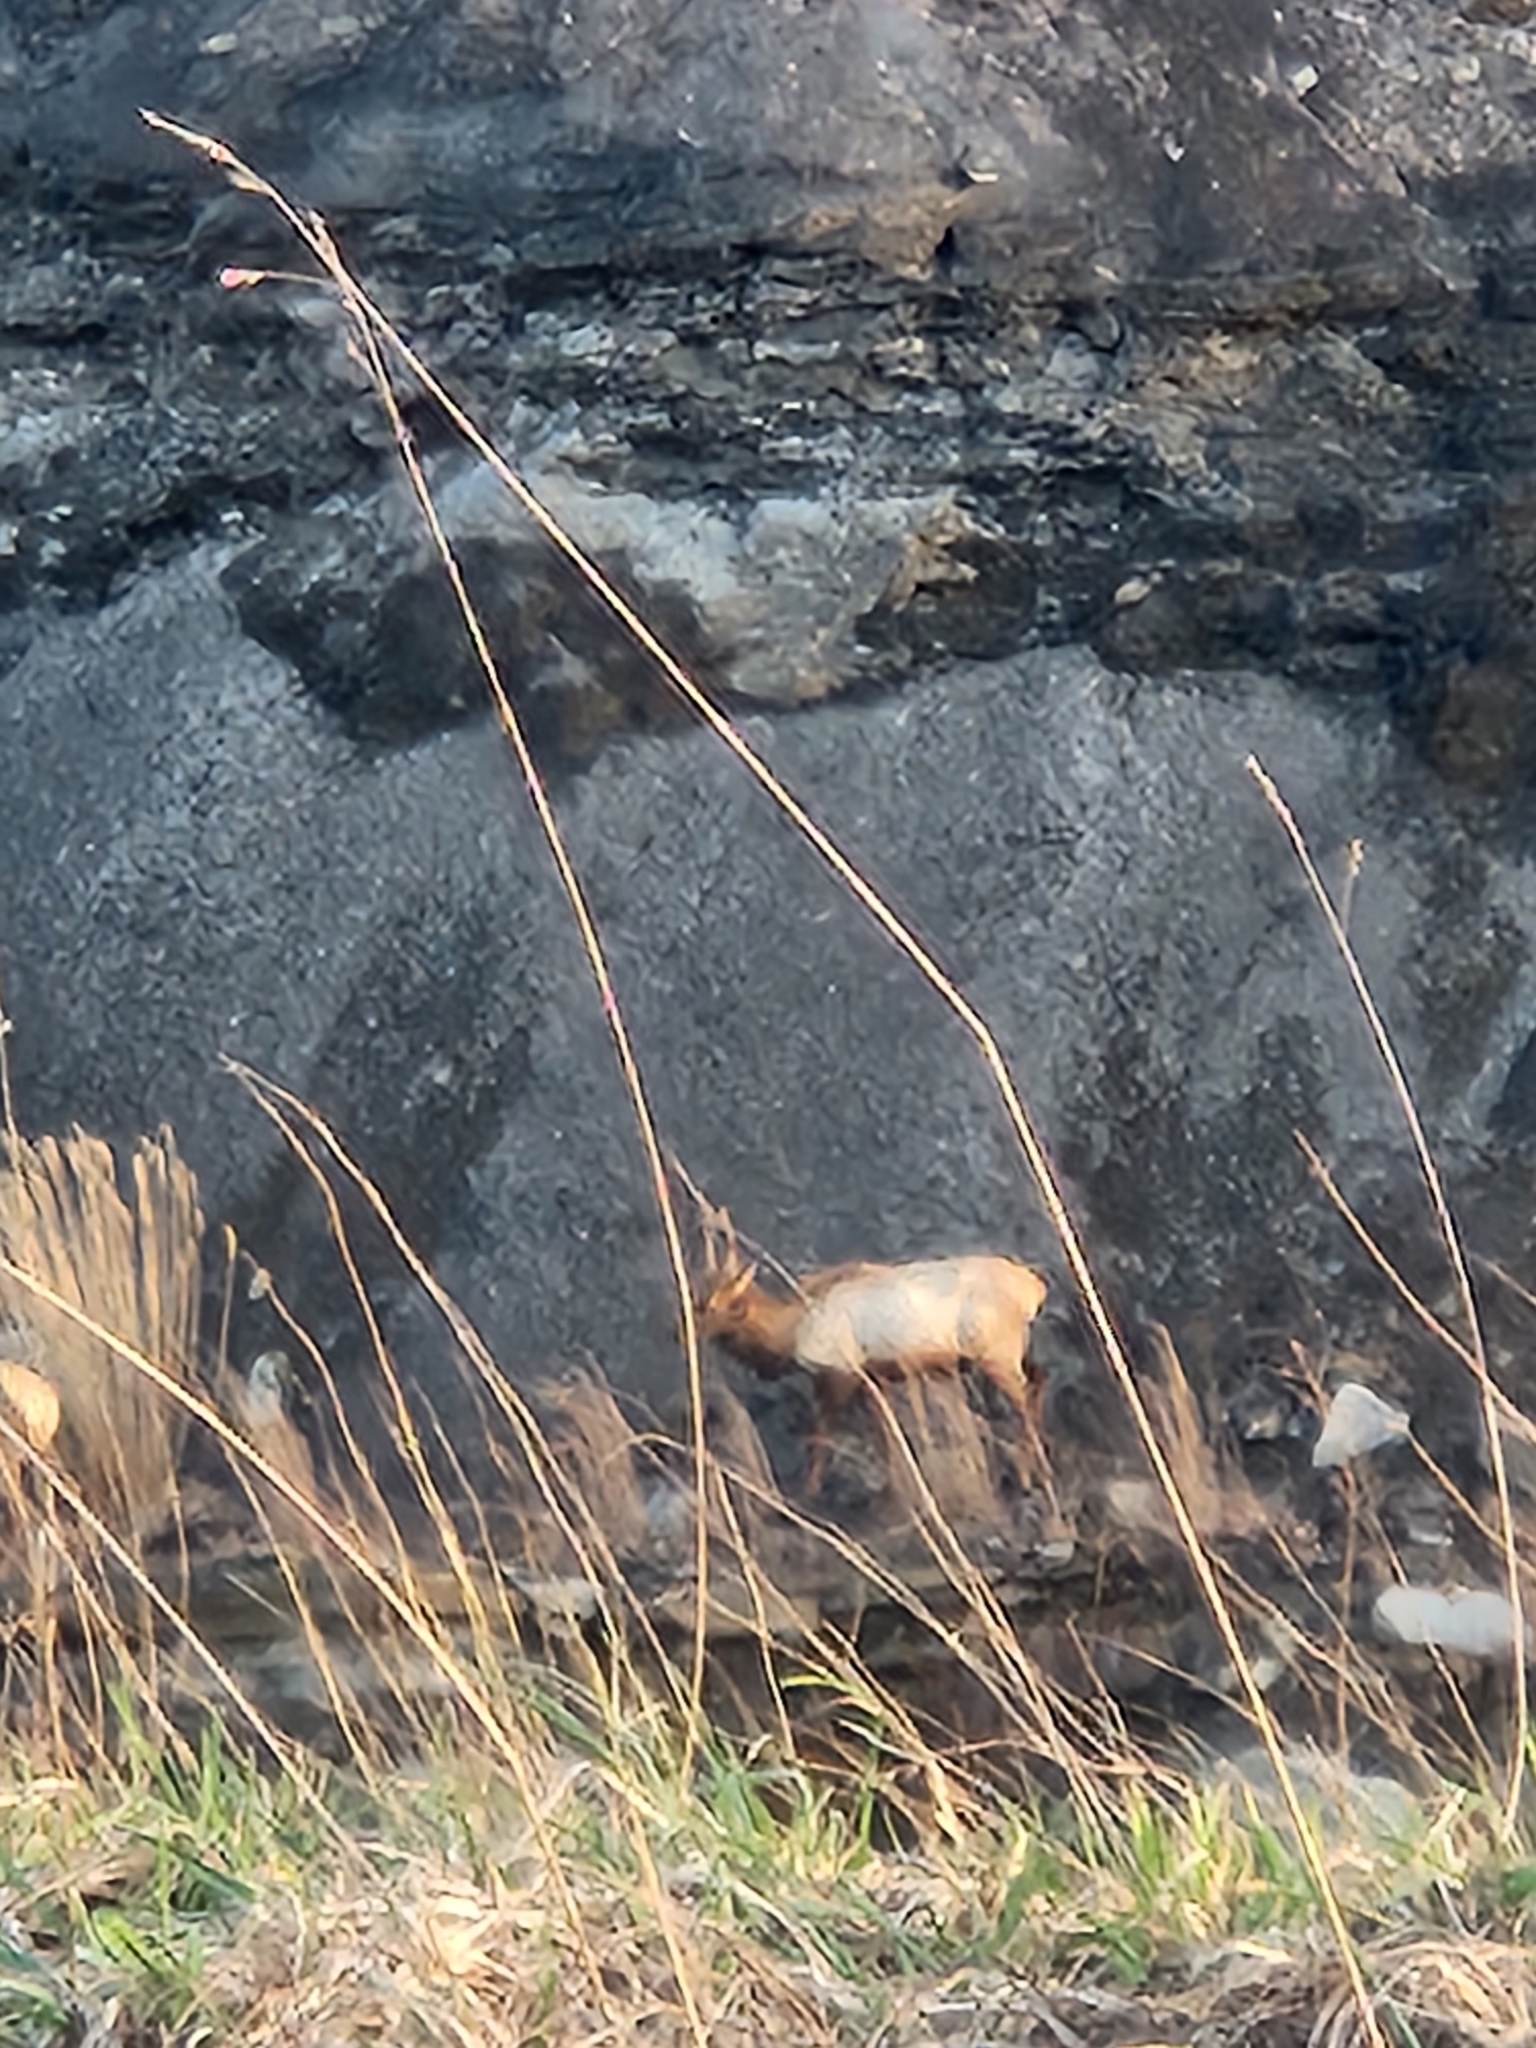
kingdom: Animalia
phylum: Chordata
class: Mammalia
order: Artiodactyla
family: Cervidae
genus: Cervus
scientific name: Cervus elaphus
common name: Red deer
